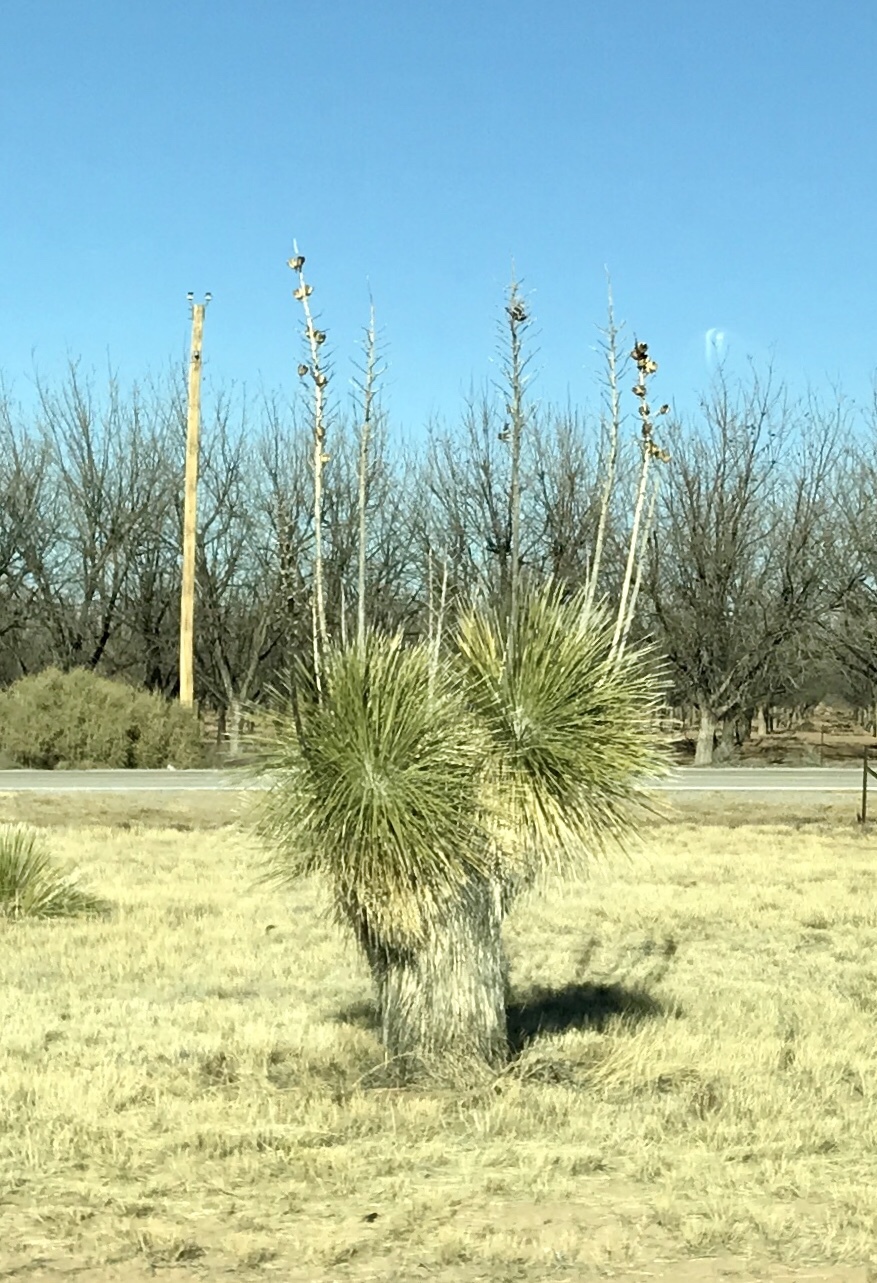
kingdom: Plantae
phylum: Tracheophyta
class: Liliopsida
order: Asparagales
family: Asparagaceae
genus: Yucca
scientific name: Yucca elata
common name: Palmella
